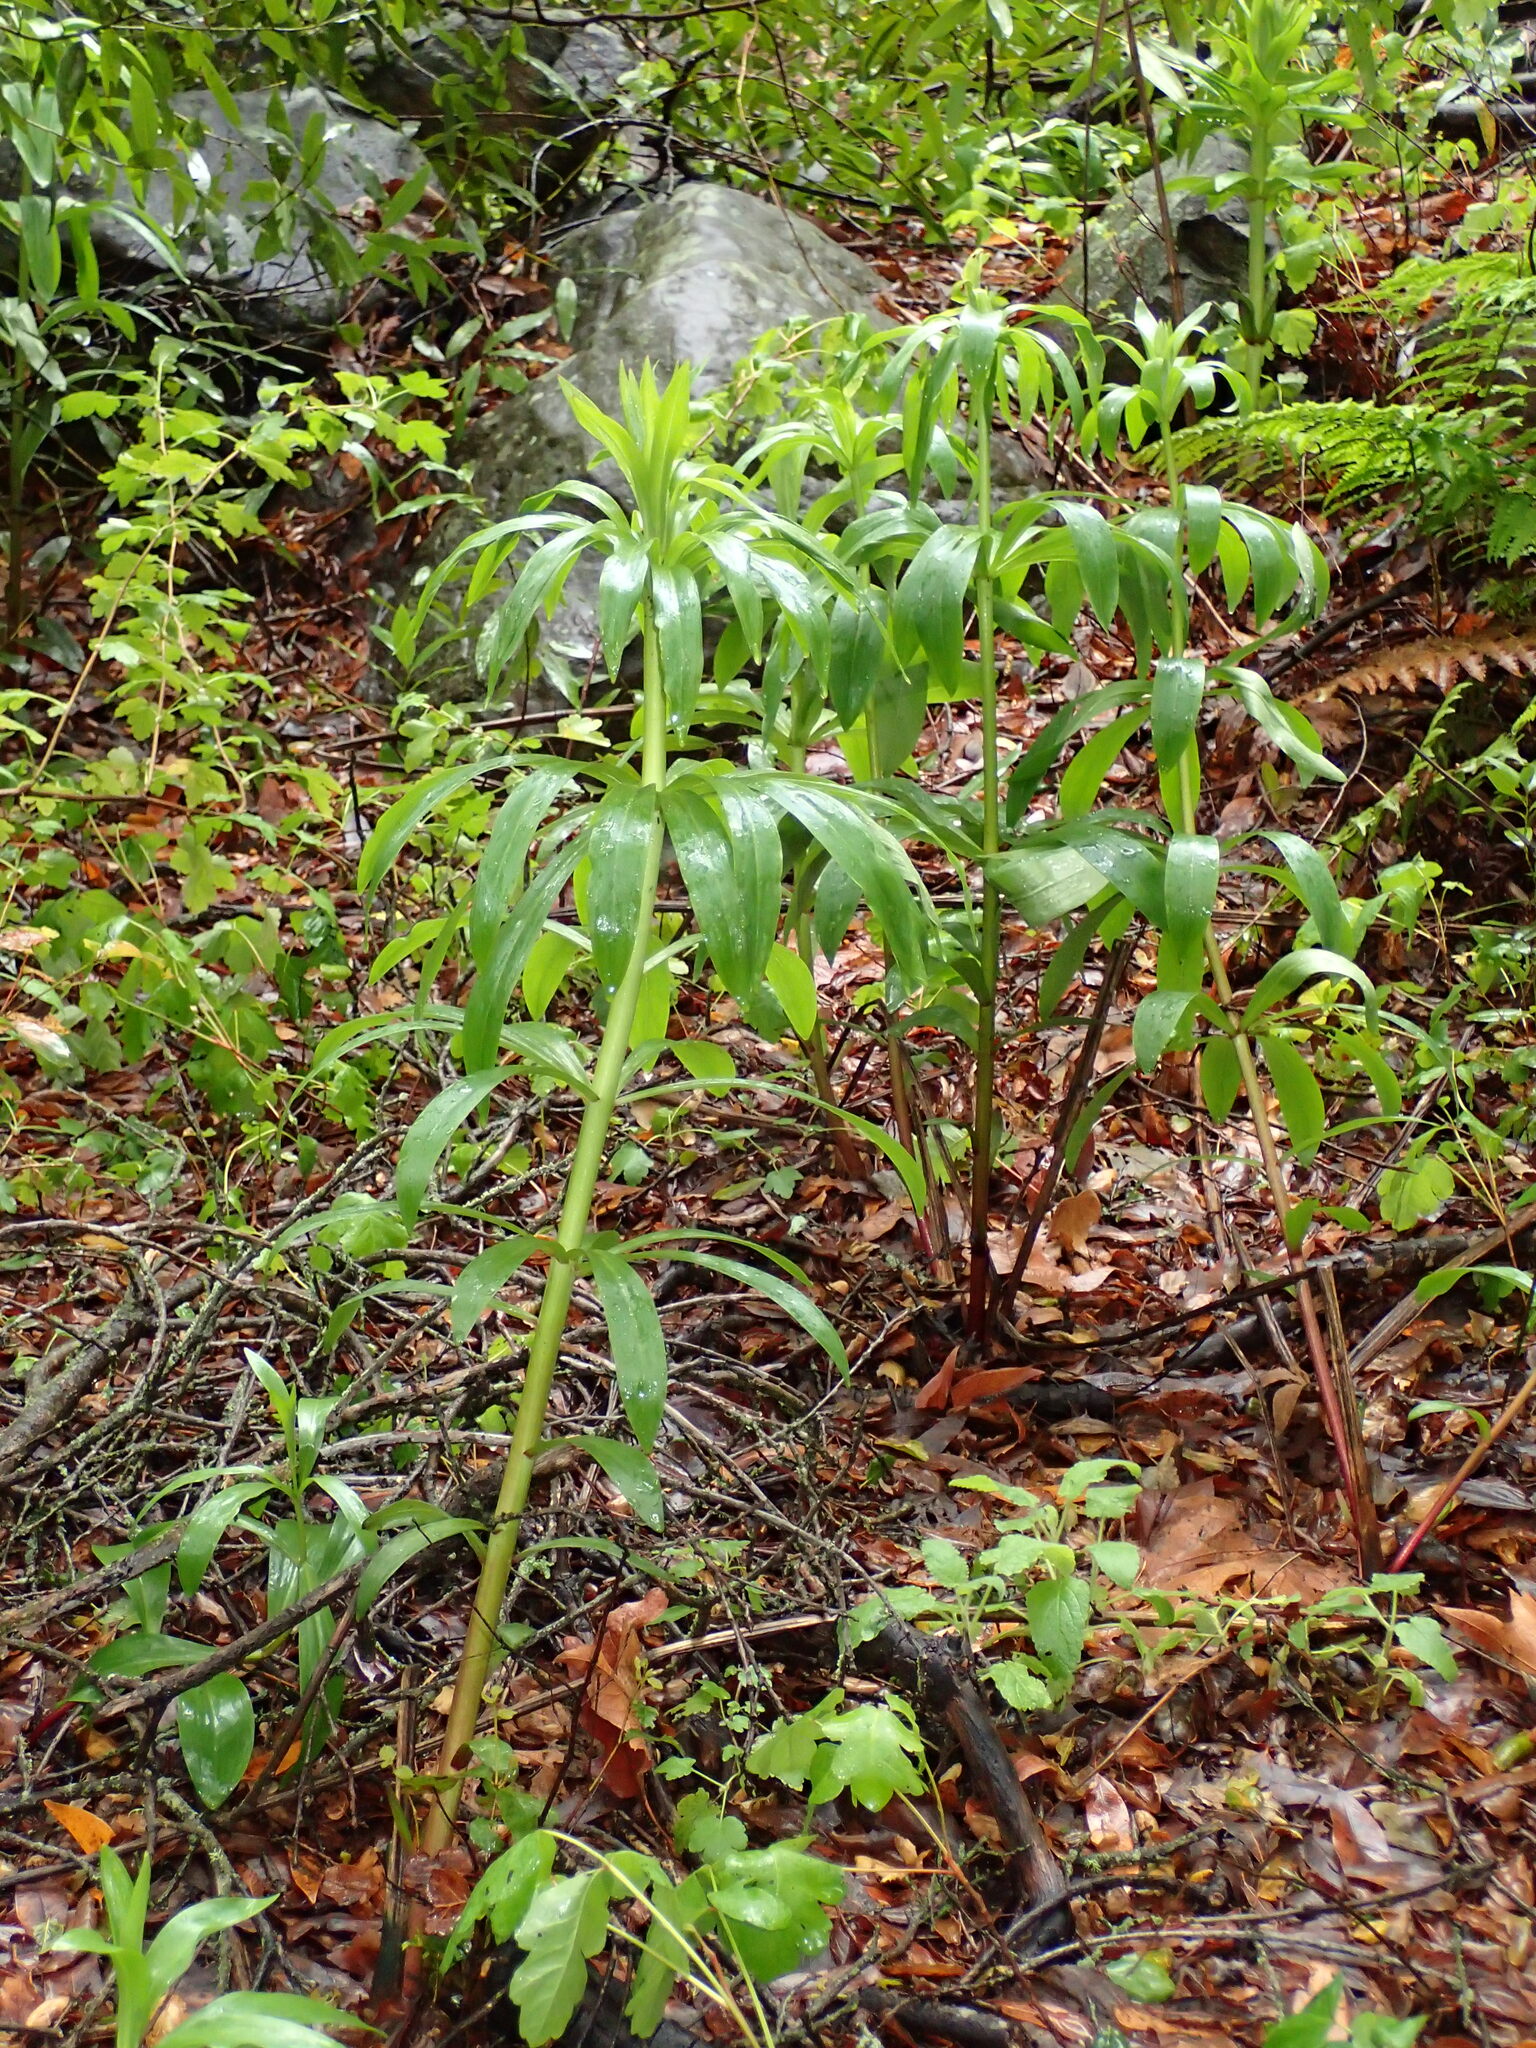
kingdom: Plantae
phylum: Tracheophyta
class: Liliopsida
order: Liliales
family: Liliaceae
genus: Lilium
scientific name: Lilium humboldtii
